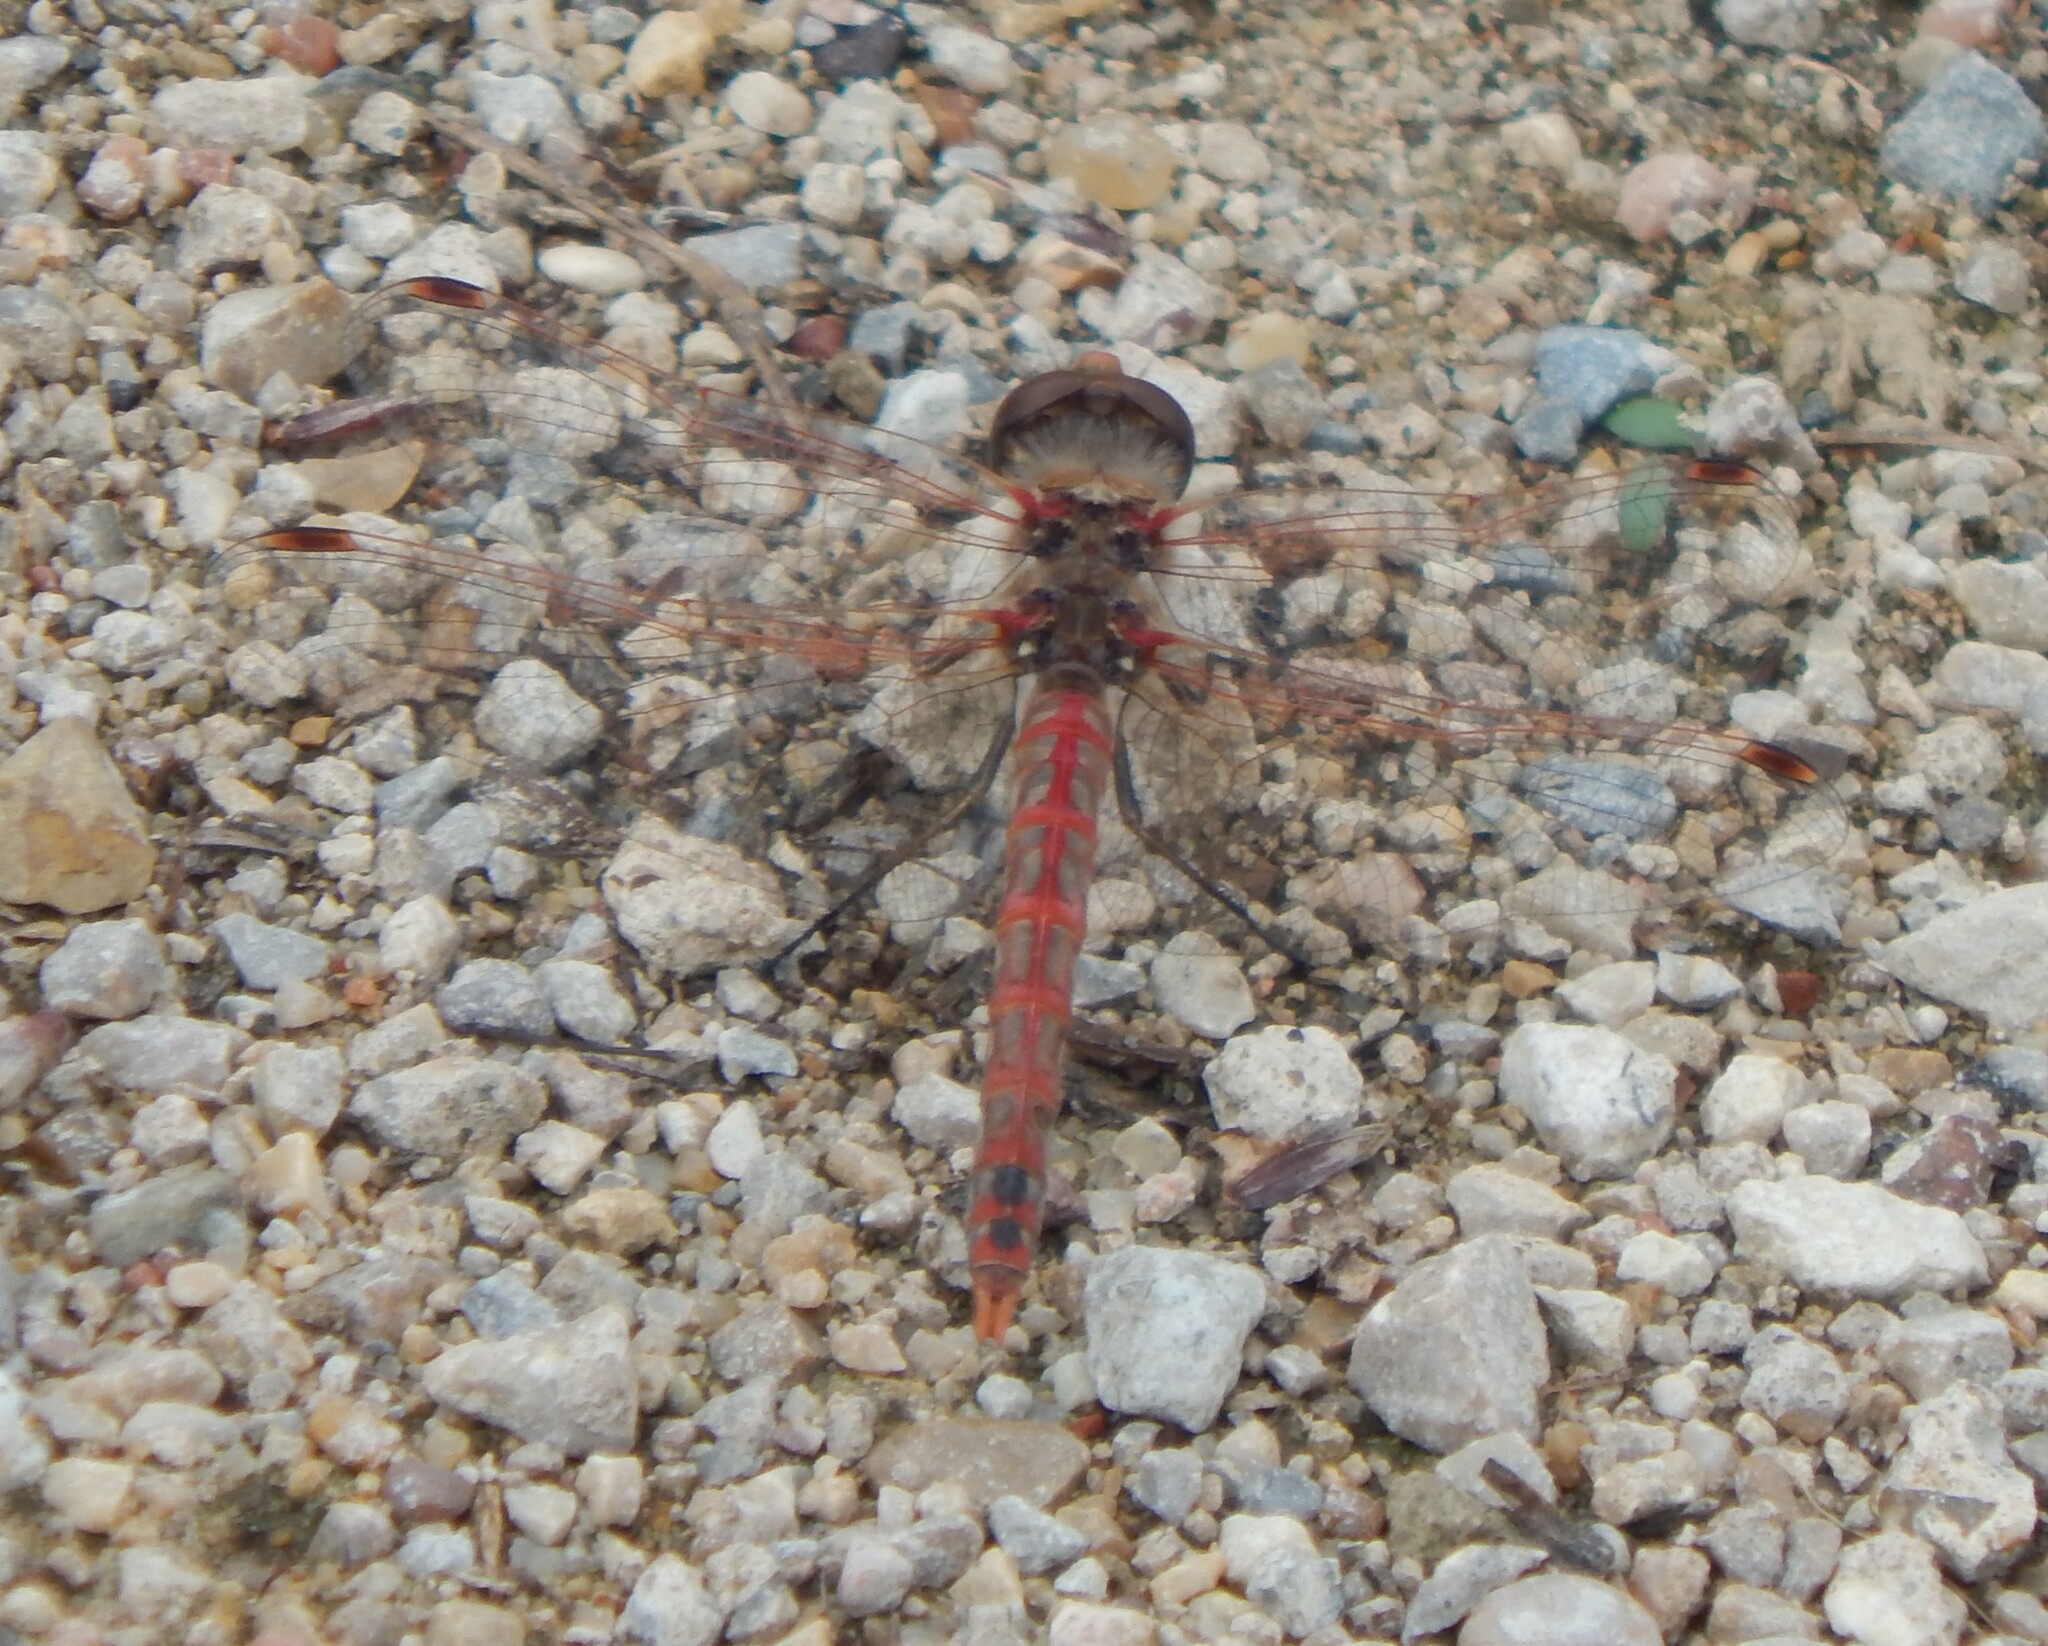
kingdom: Animalia
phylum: Arthropoda
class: Insecta
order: Odonata
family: Libellulidae
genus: Sympetrum
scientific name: Sympetrum corruptum
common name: Variegated meadowhawk
